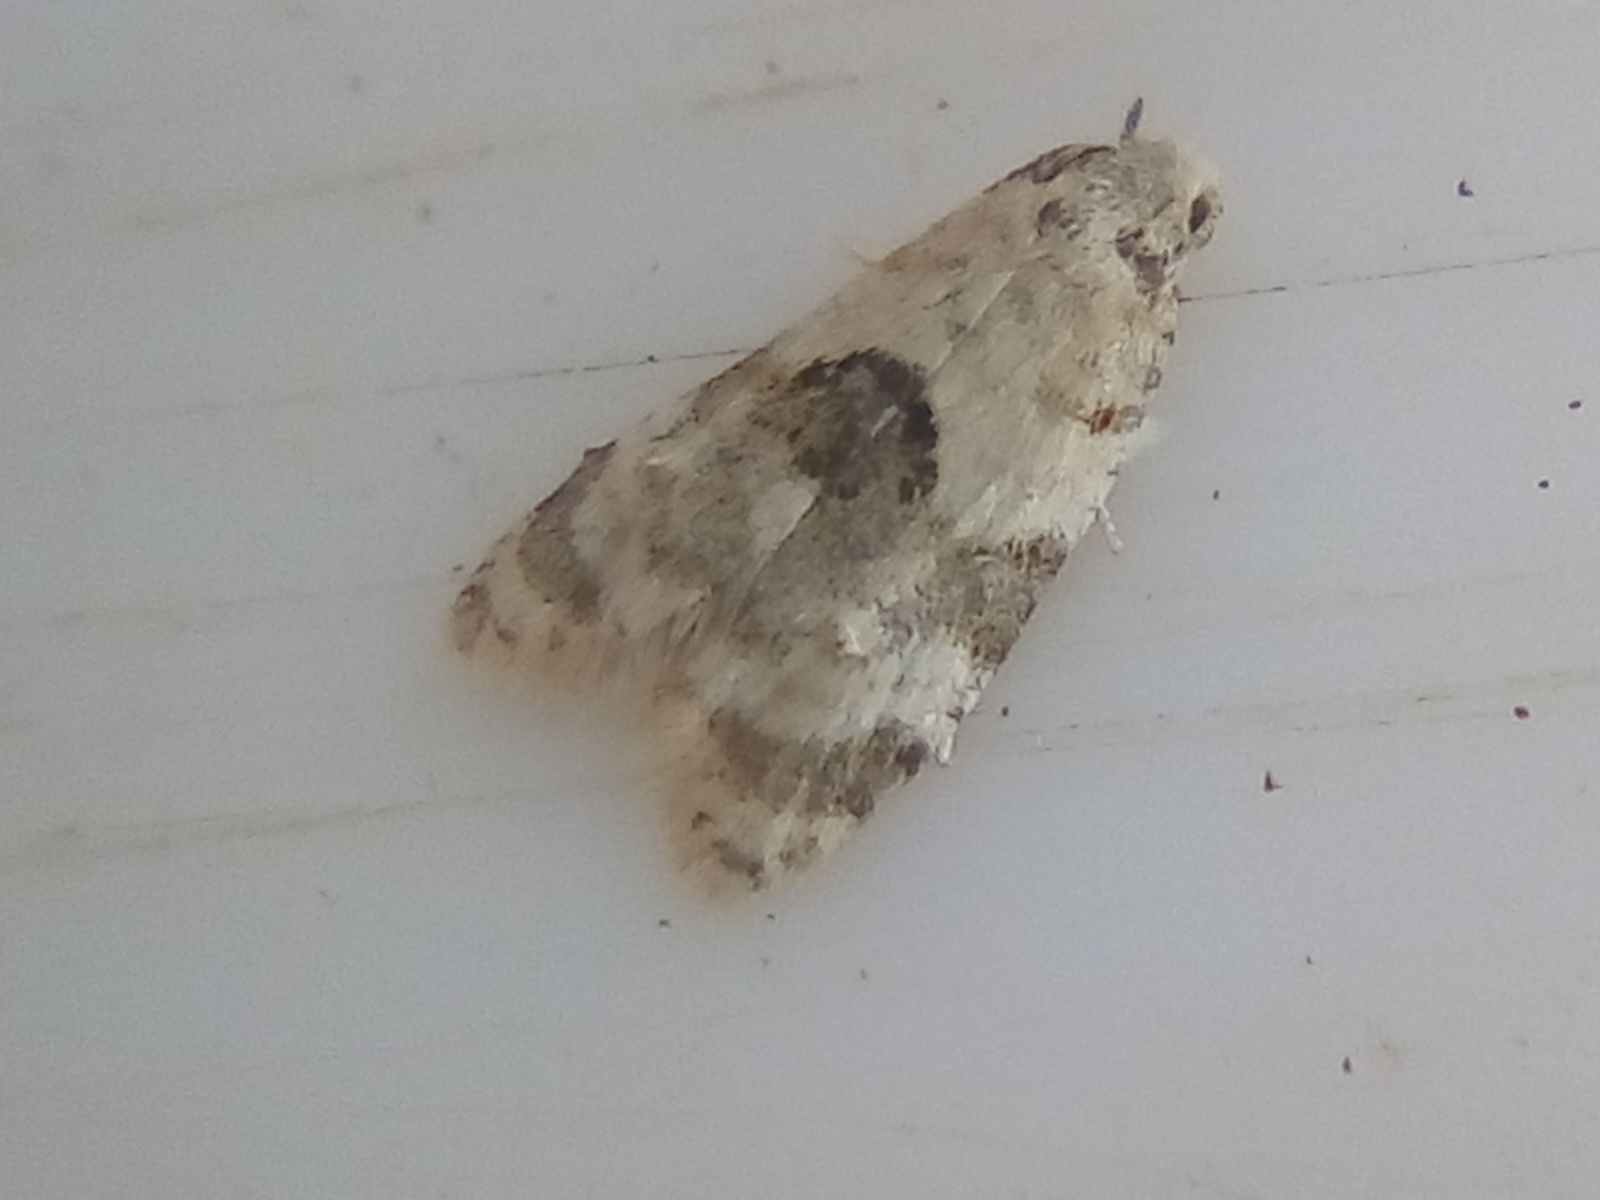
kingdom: Animalia
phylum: Arthropoda
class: Insecta
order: Lepidoptera
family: Tortricidae
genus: Dipterina
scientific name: Dipterina imbriferana
